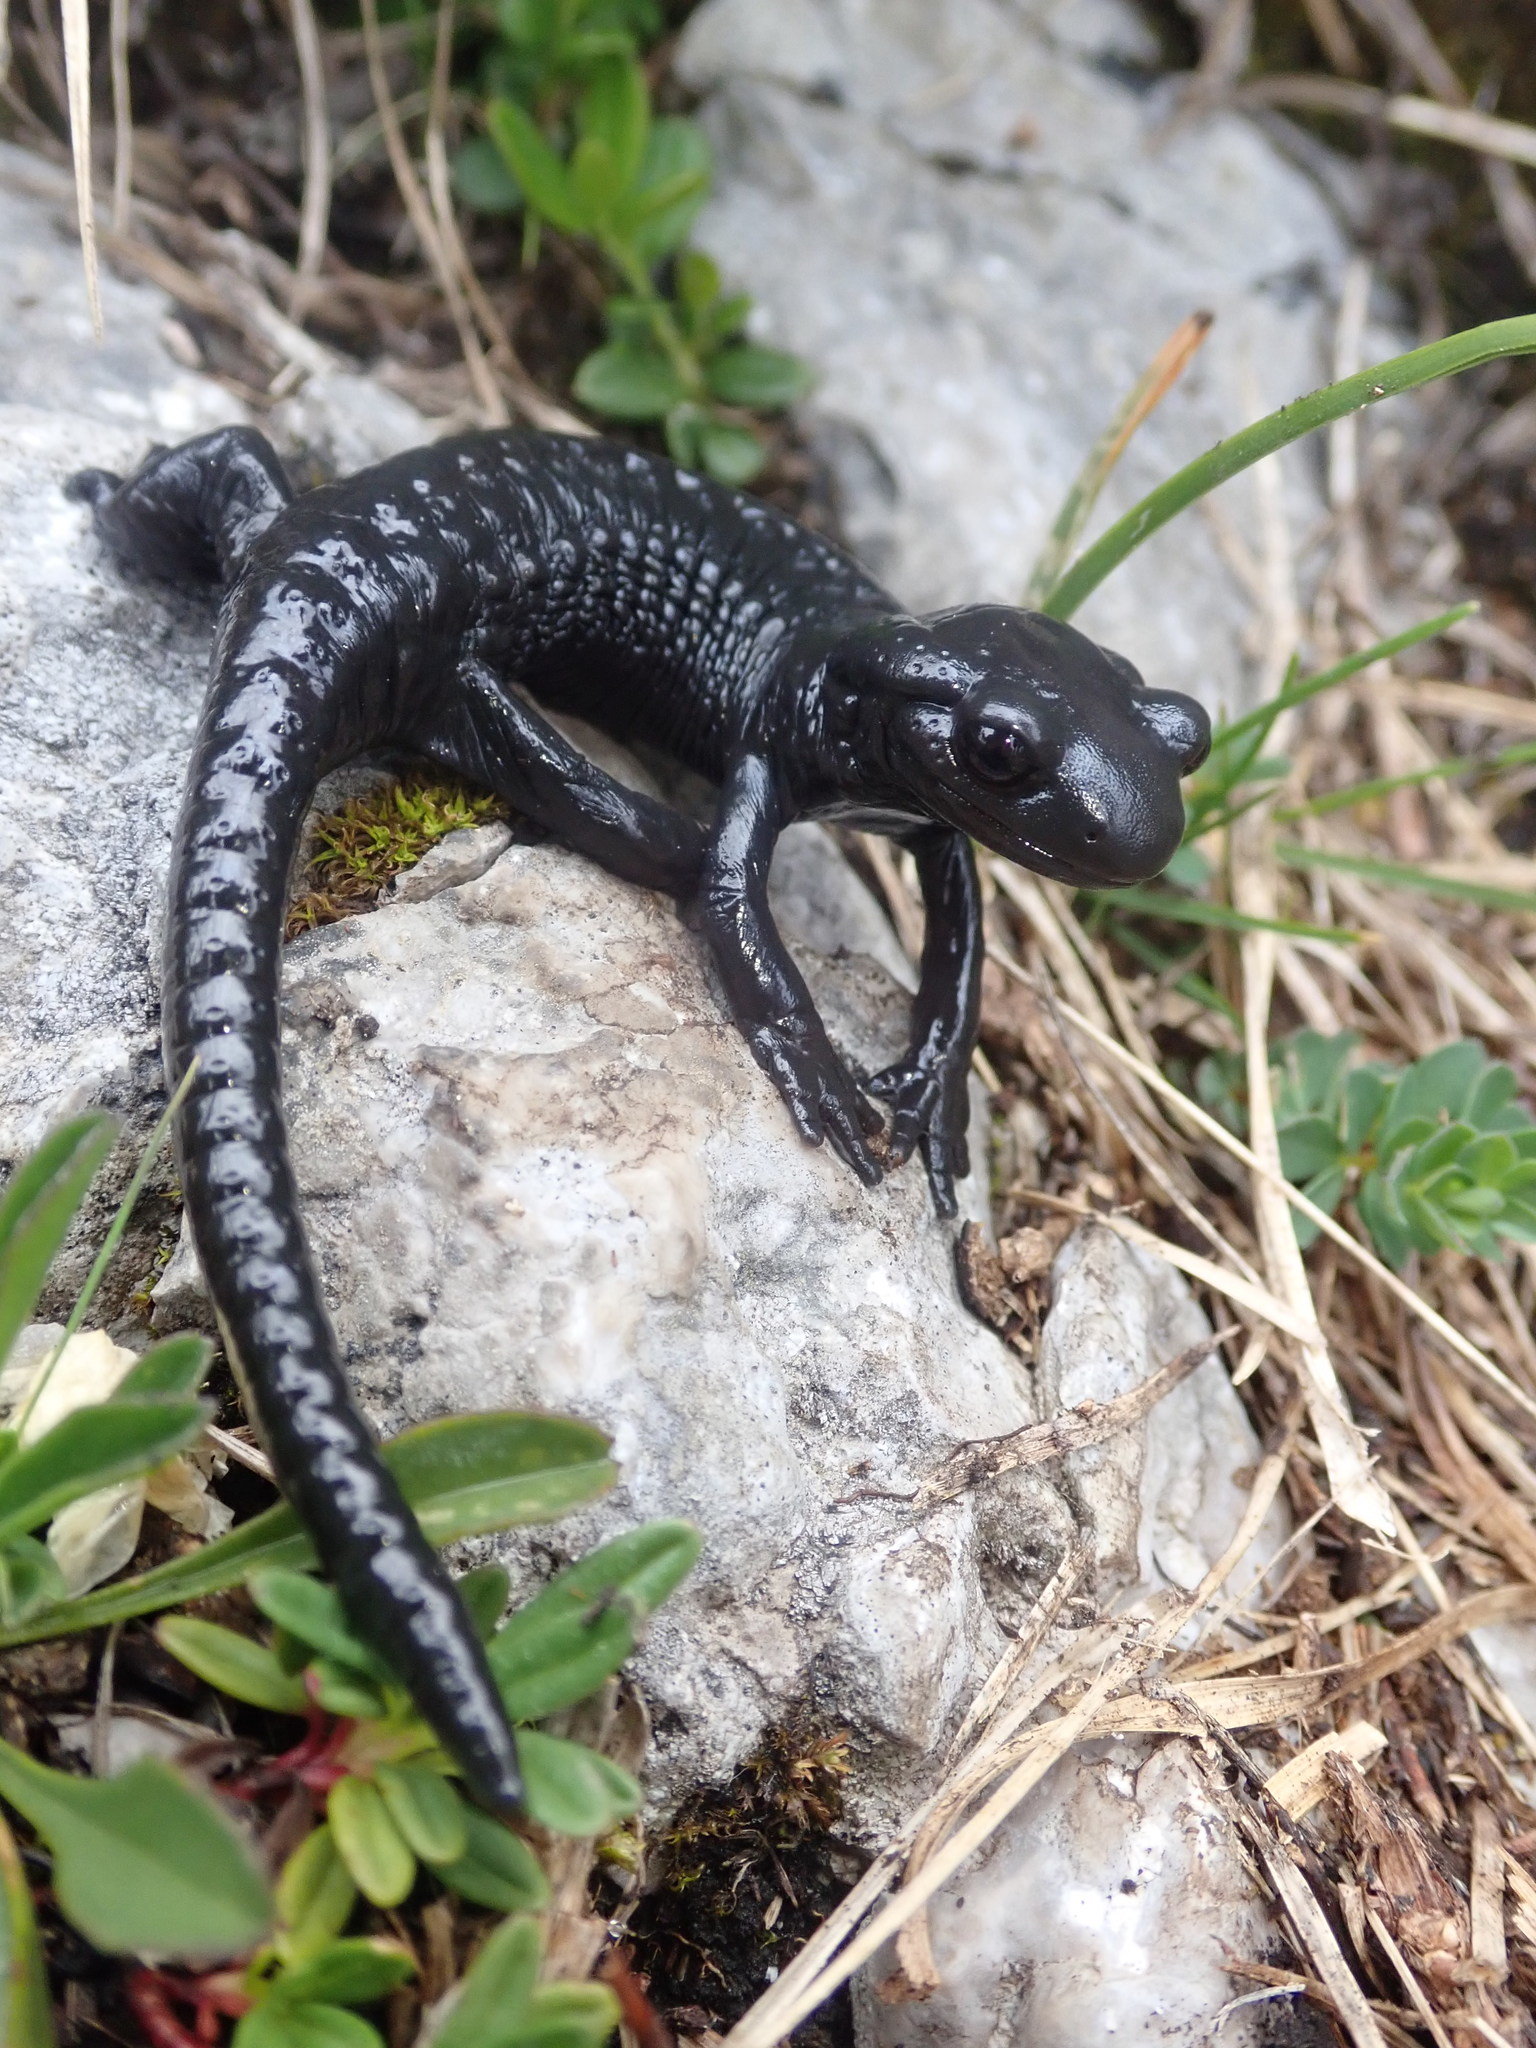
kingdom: Animalia
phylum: Chordata
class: Amphibia
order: Caudata
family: Salamandridae
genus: Salamandra
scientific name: Salamandra atra
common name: Alpine salamander
